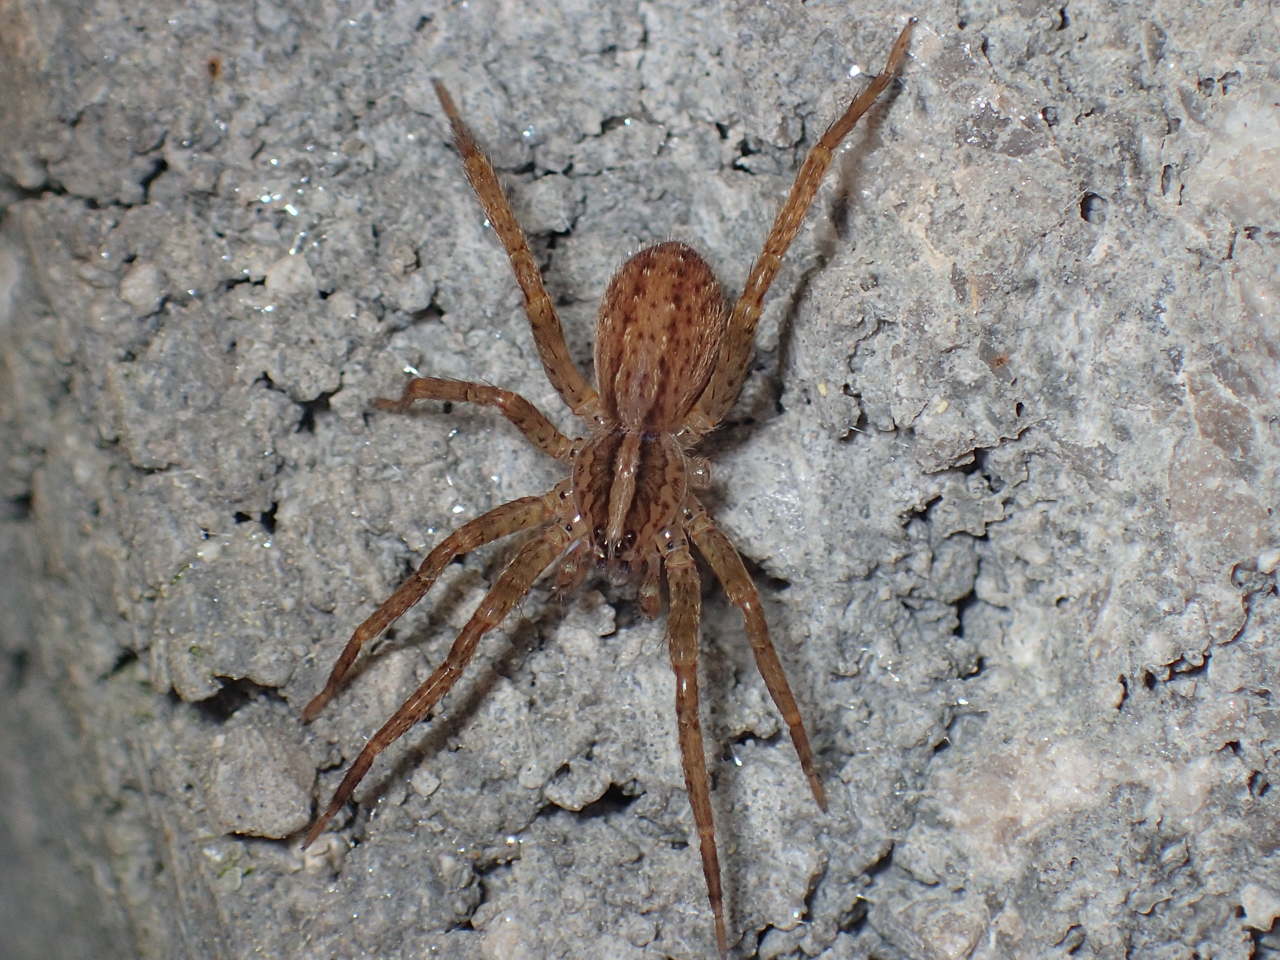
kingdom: Animalia
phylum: Arthropoda
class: Arachnida
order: Araneae
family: Ctenidae
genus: Anahita
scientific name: Anahita punctulata
